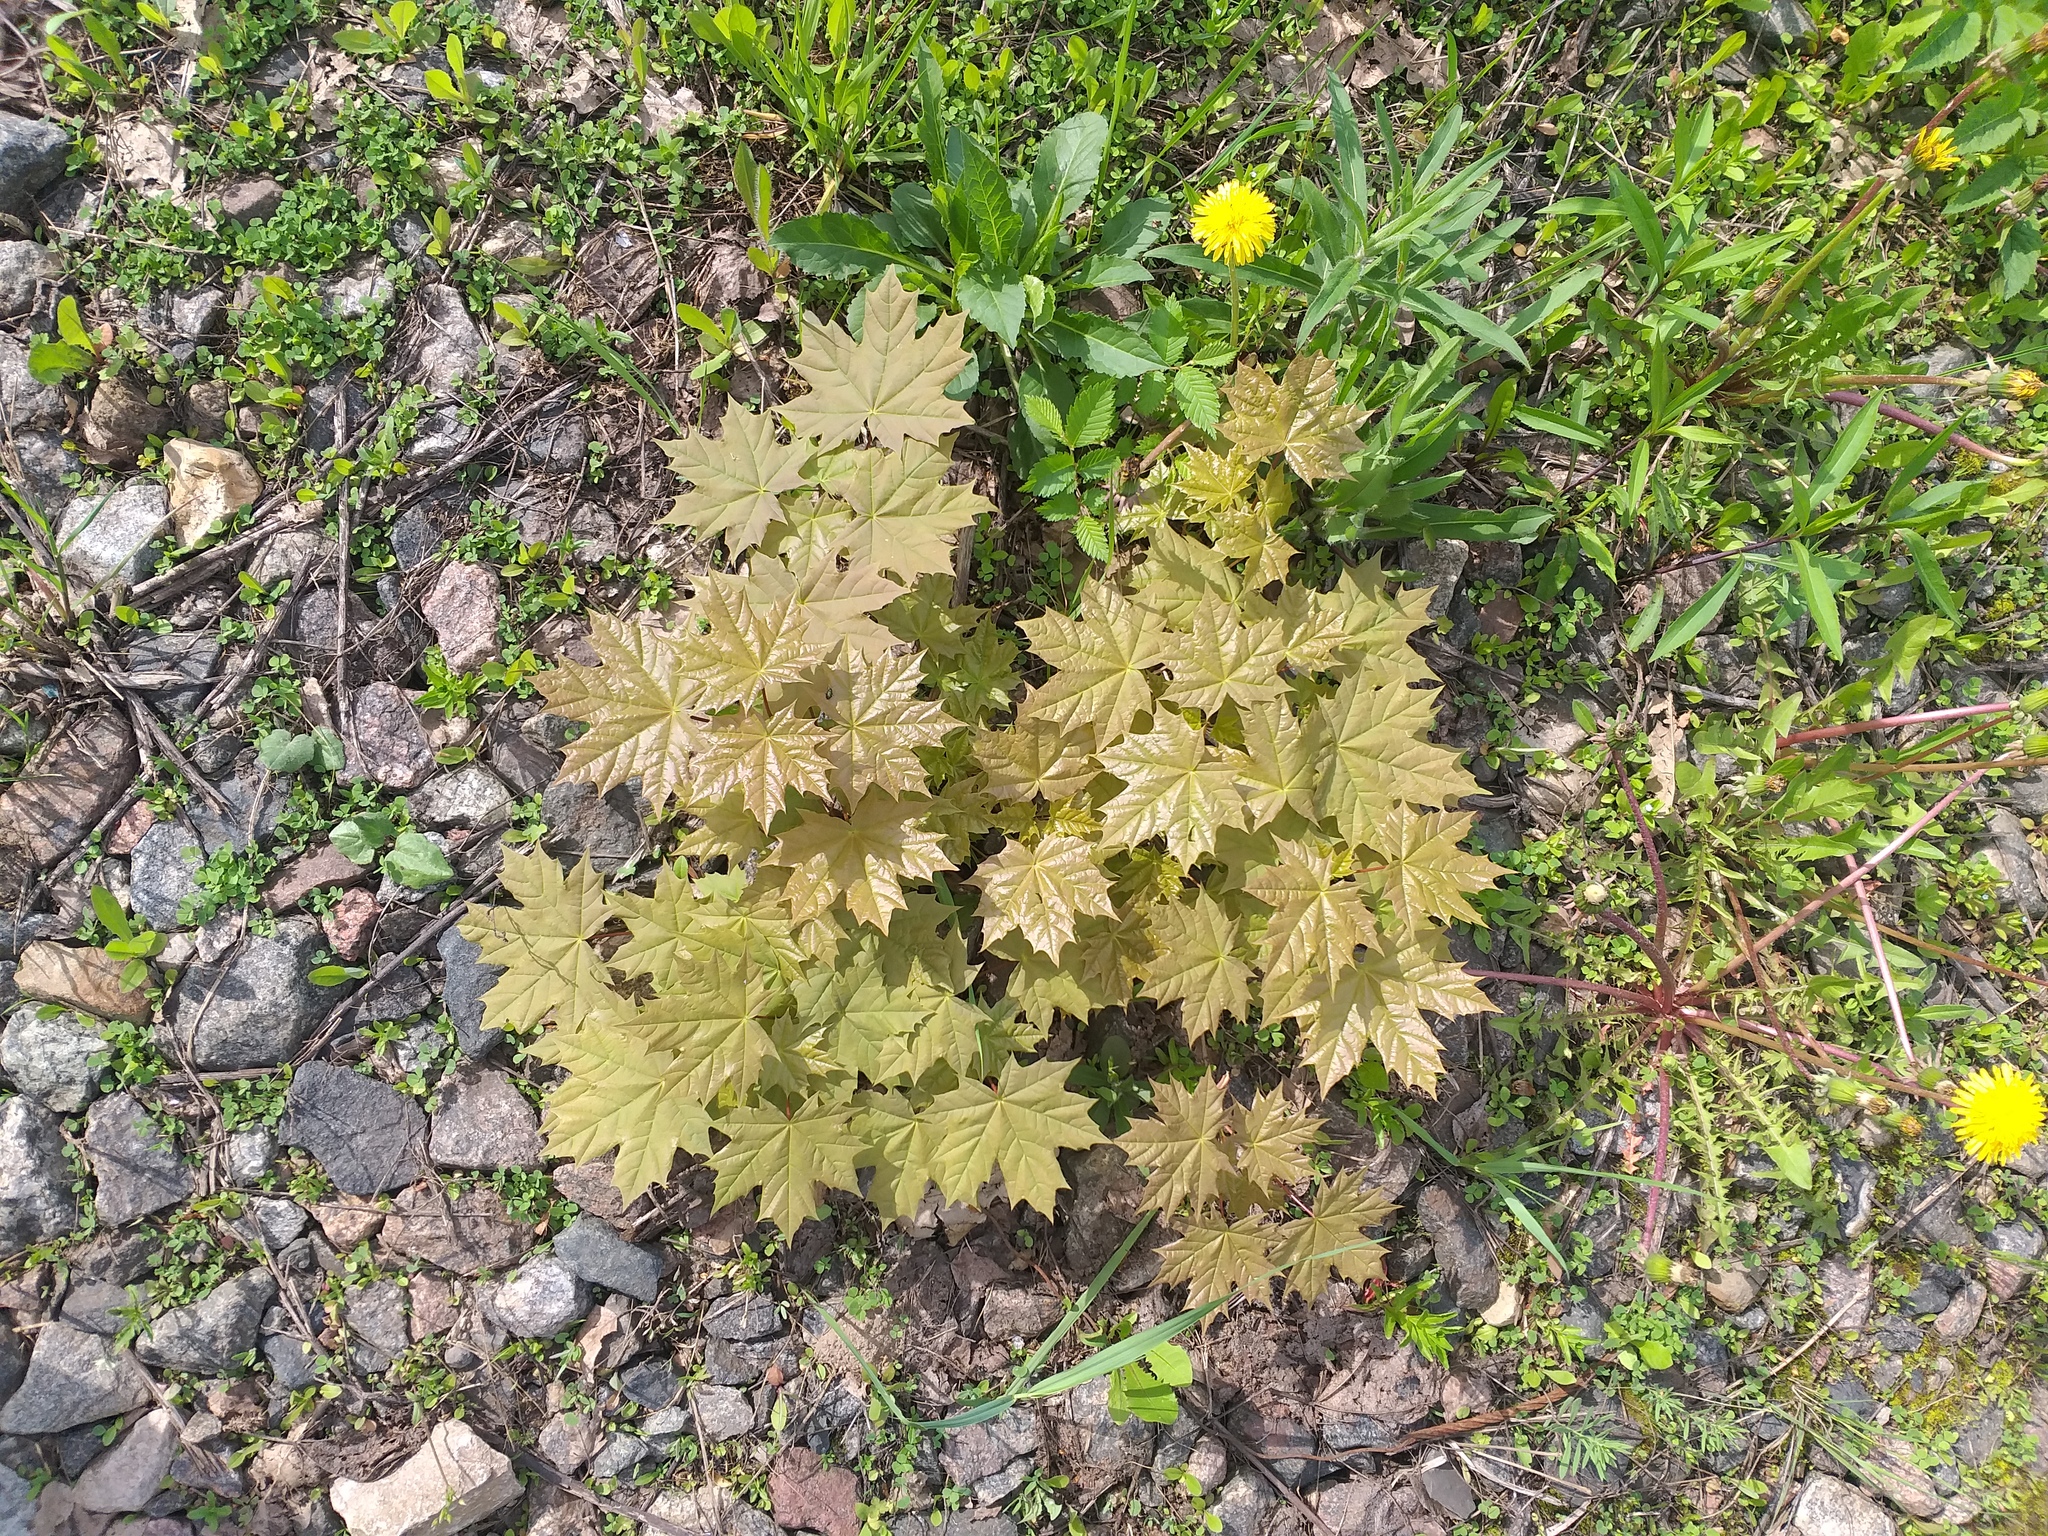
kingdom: Plantae
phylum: Tracheophyta
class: Magnoliopsida
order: Sapindales
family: Sapindaceae
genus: Acer
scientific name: Acer platanoides
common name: Norway maple
